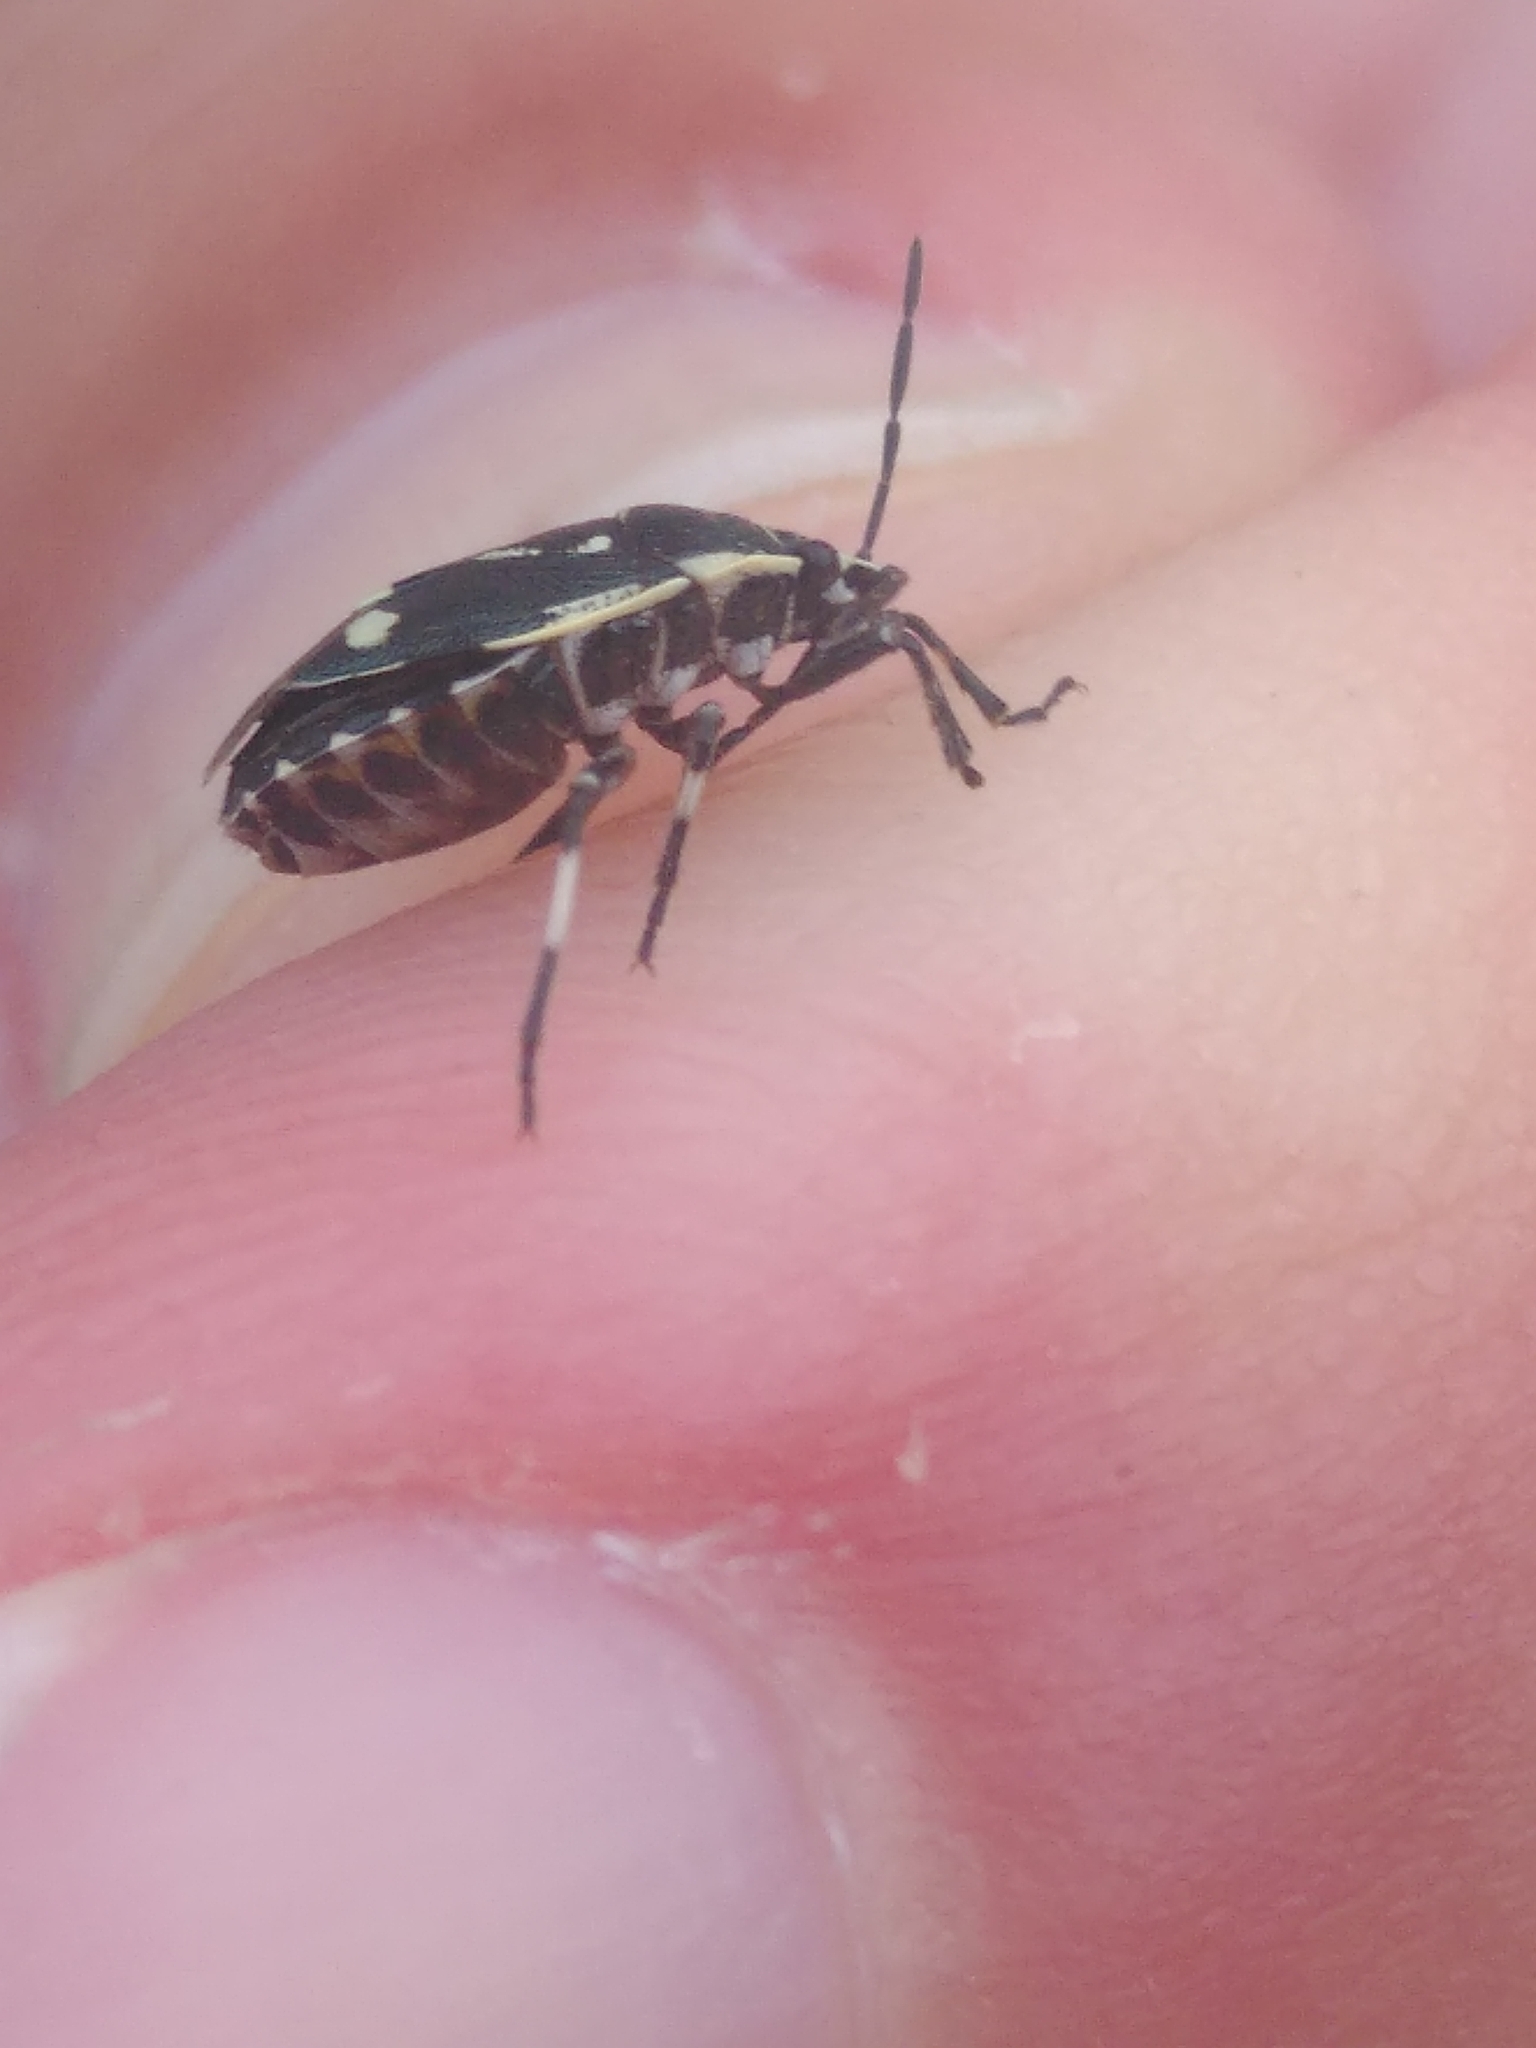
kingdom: Animalia
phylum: Arthropoda
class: Insecta
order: Hemiptera
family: Pentatomidae
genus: Eurydema
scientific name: Eurydema oleracea
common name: Cabbage bug
